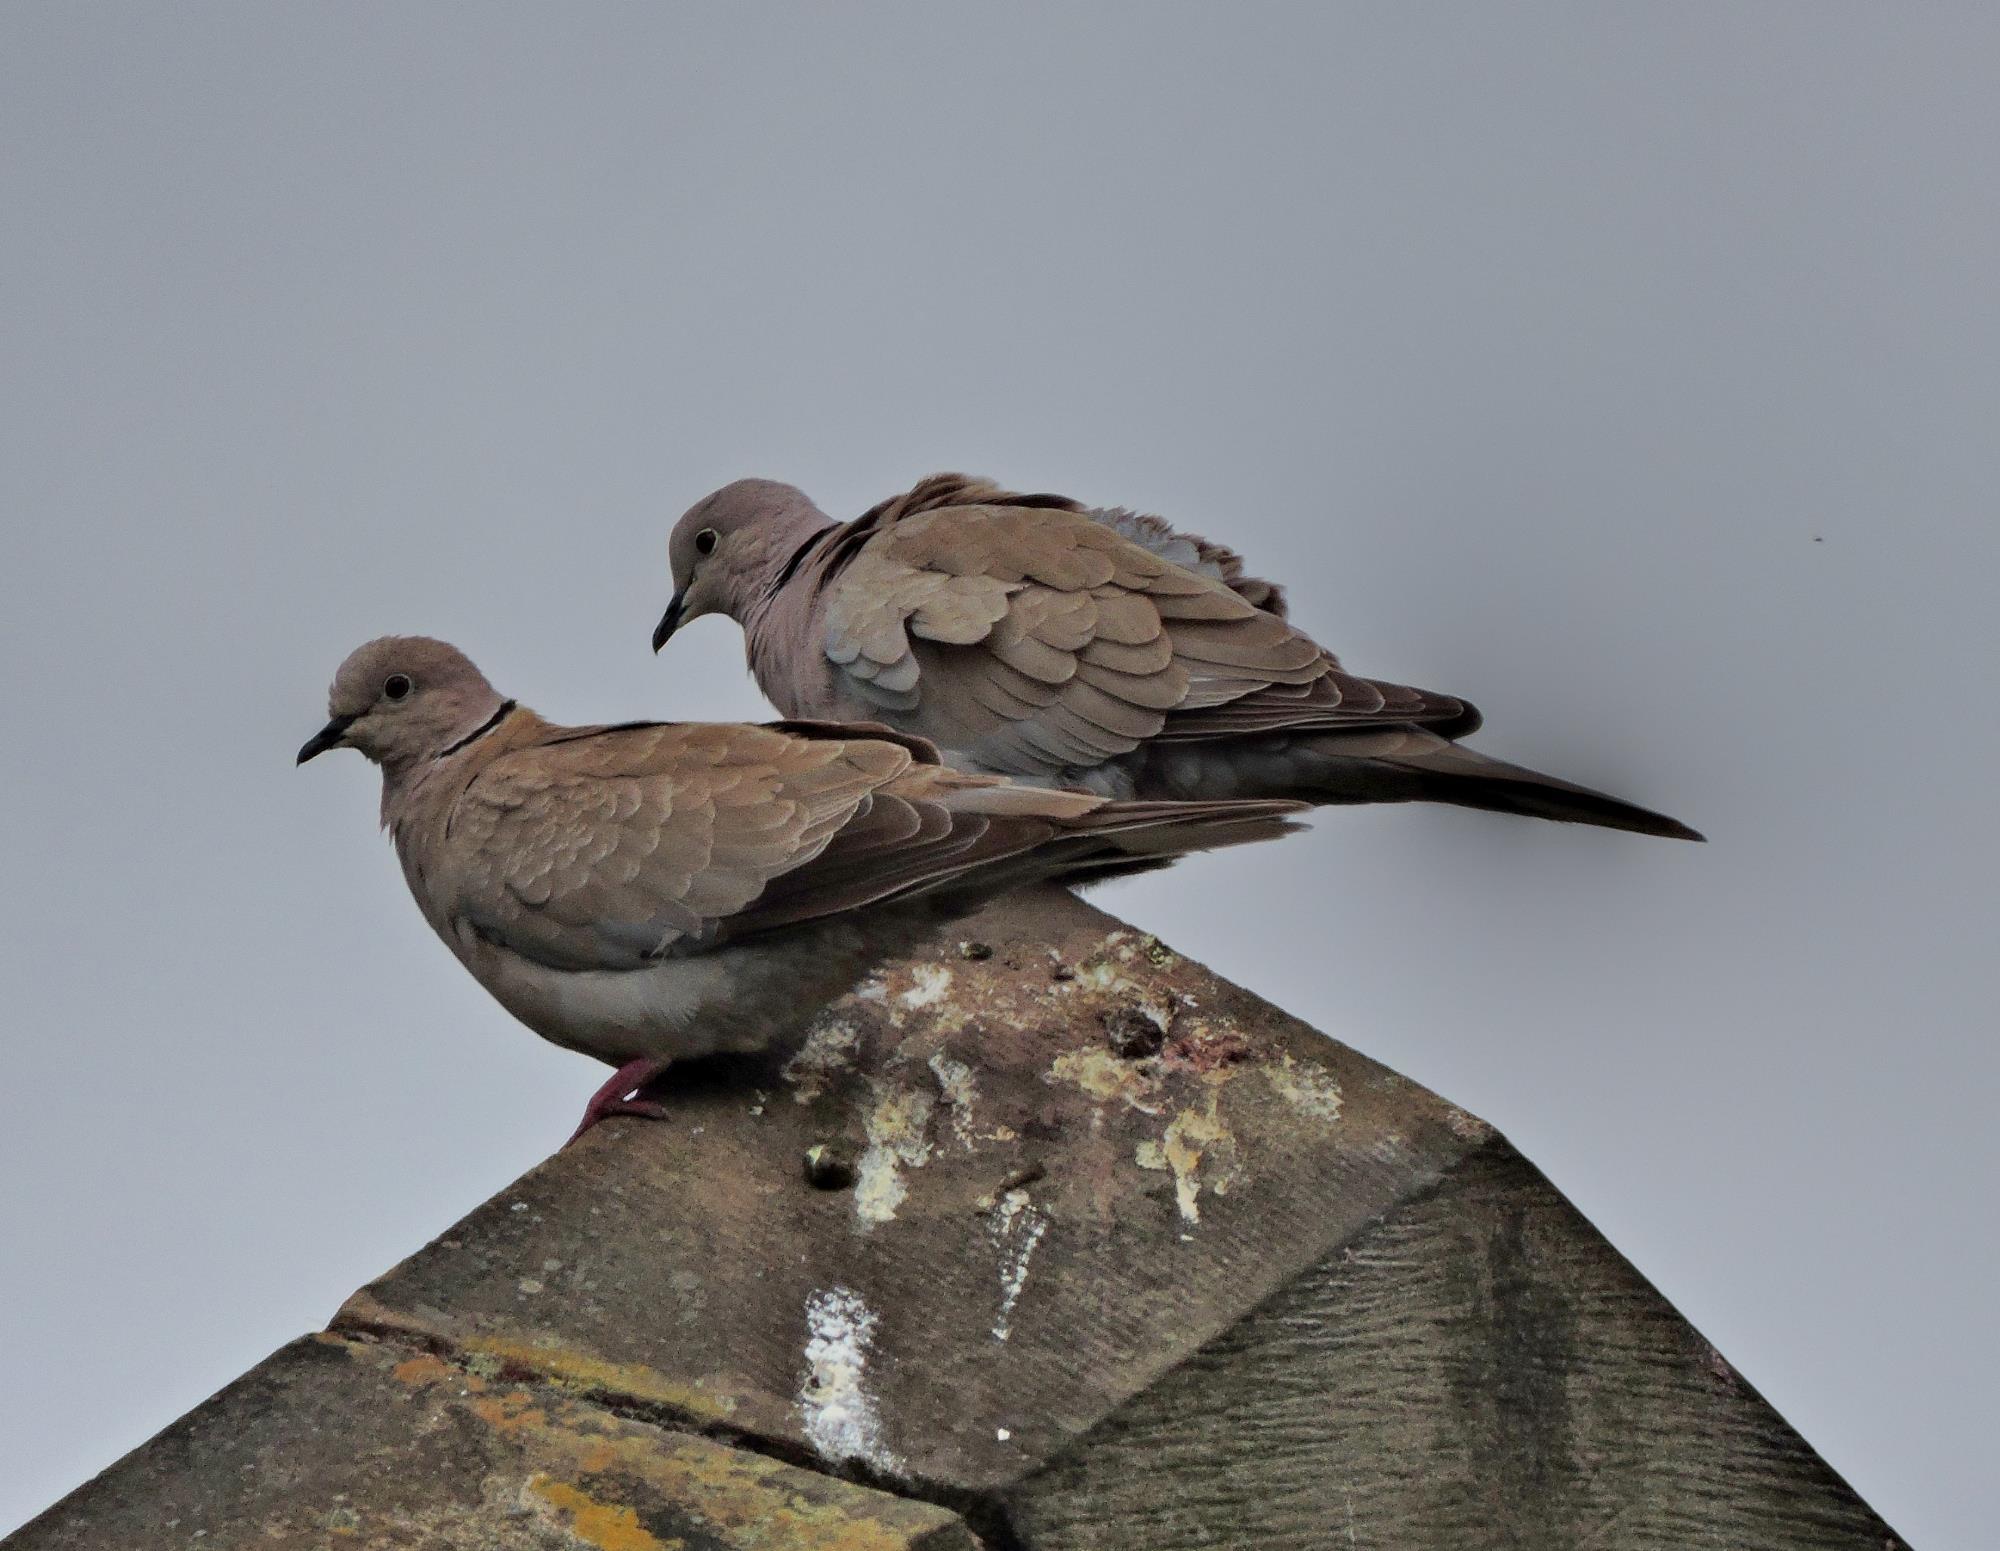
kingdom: Animalia
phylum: Chordata
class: Aves
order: Columbiformes
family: Columbidae
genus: Streptopelia
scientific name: Streptopelia decaocto
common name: Eurasian collared dove
